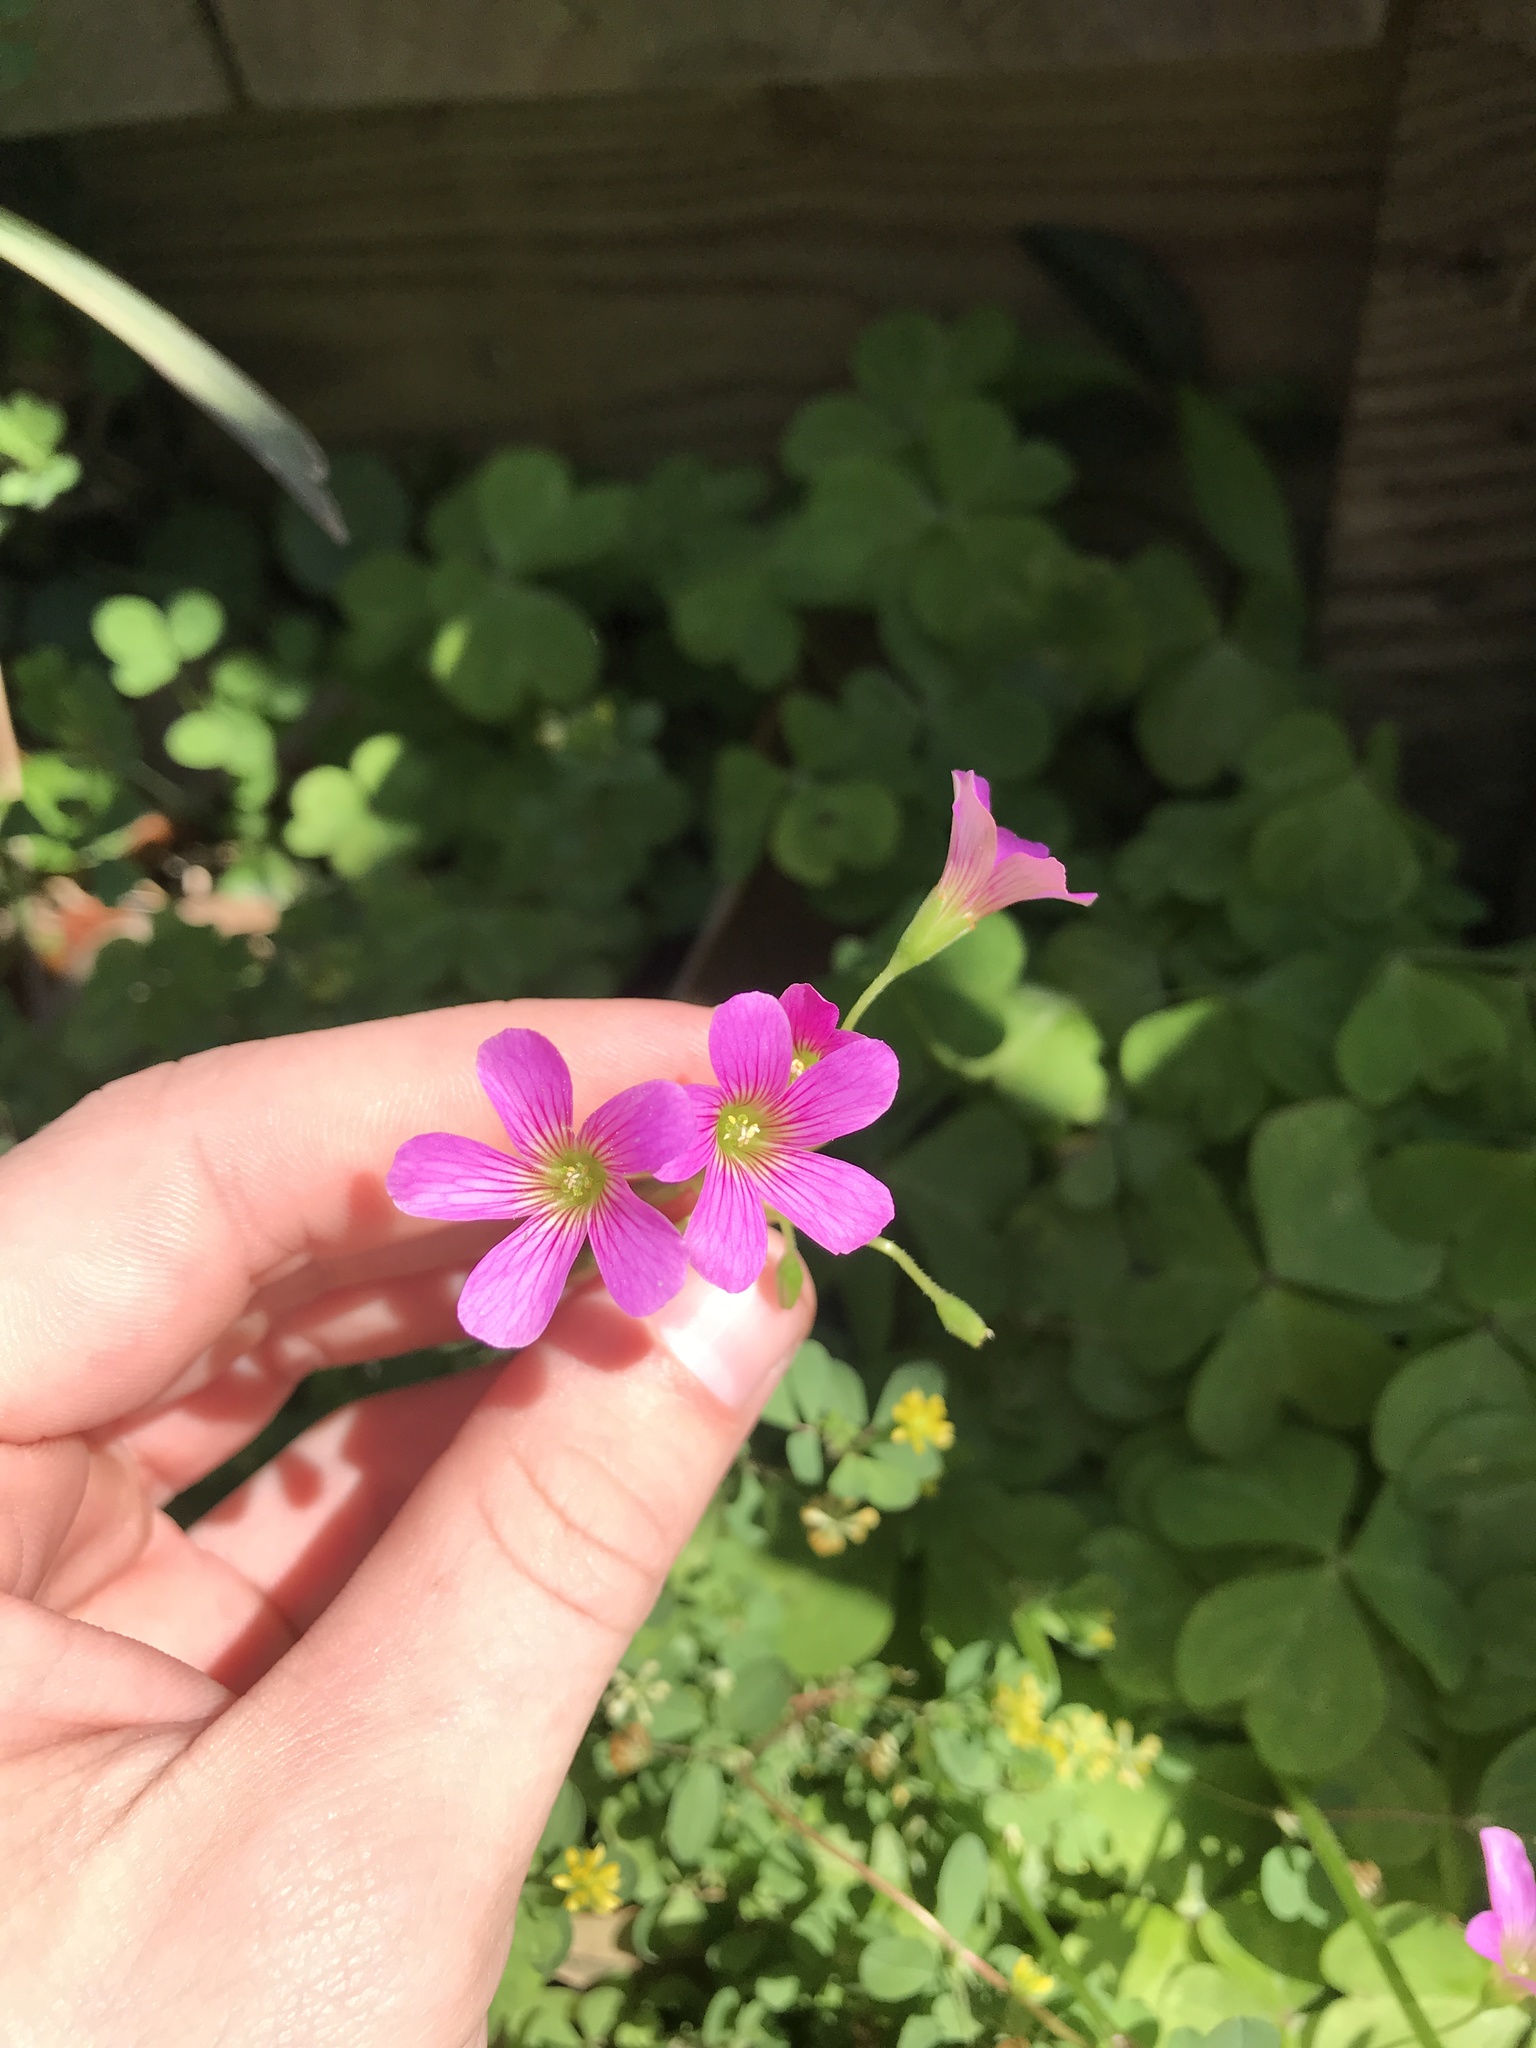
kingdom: Plantae
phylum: Tracheophyta
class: Magnoliopsida
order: Oxalidales
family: Oxalidaceae
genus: Oxalis
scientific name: Oxalis debilis
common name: Large-flowered pink-sorrel
